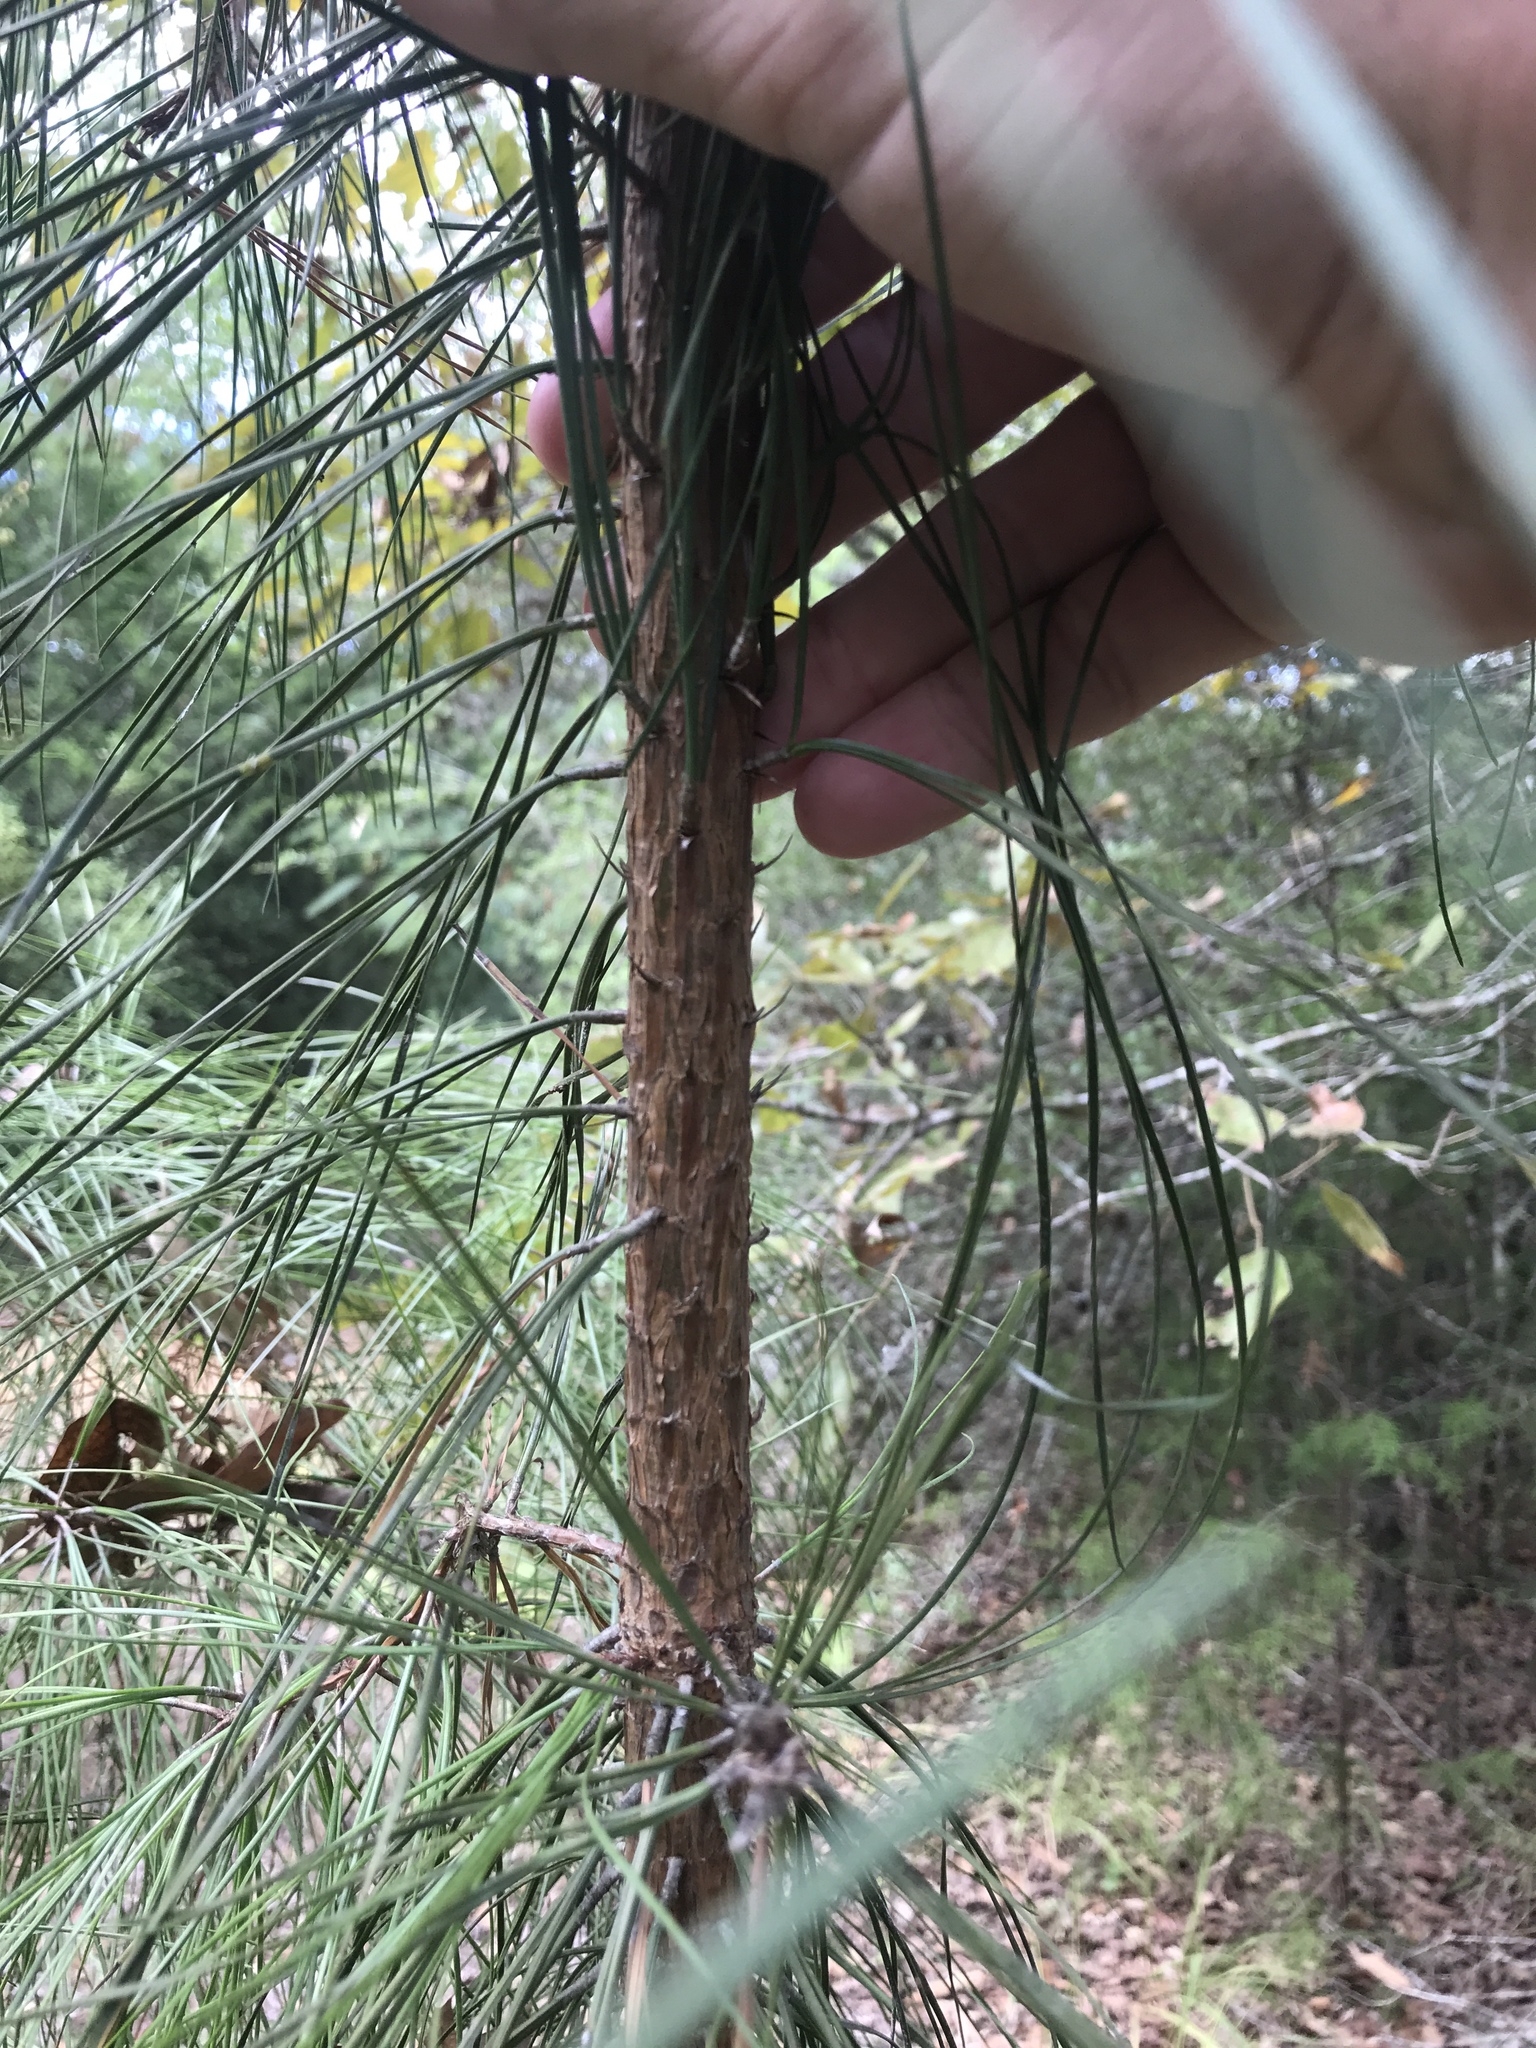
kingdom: Plantae
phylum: Tracheophyta
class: Pinopsida
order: Pinales
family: Pinaceae
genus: Pinus
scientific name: Pinus taeda
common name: Loblolly pine
